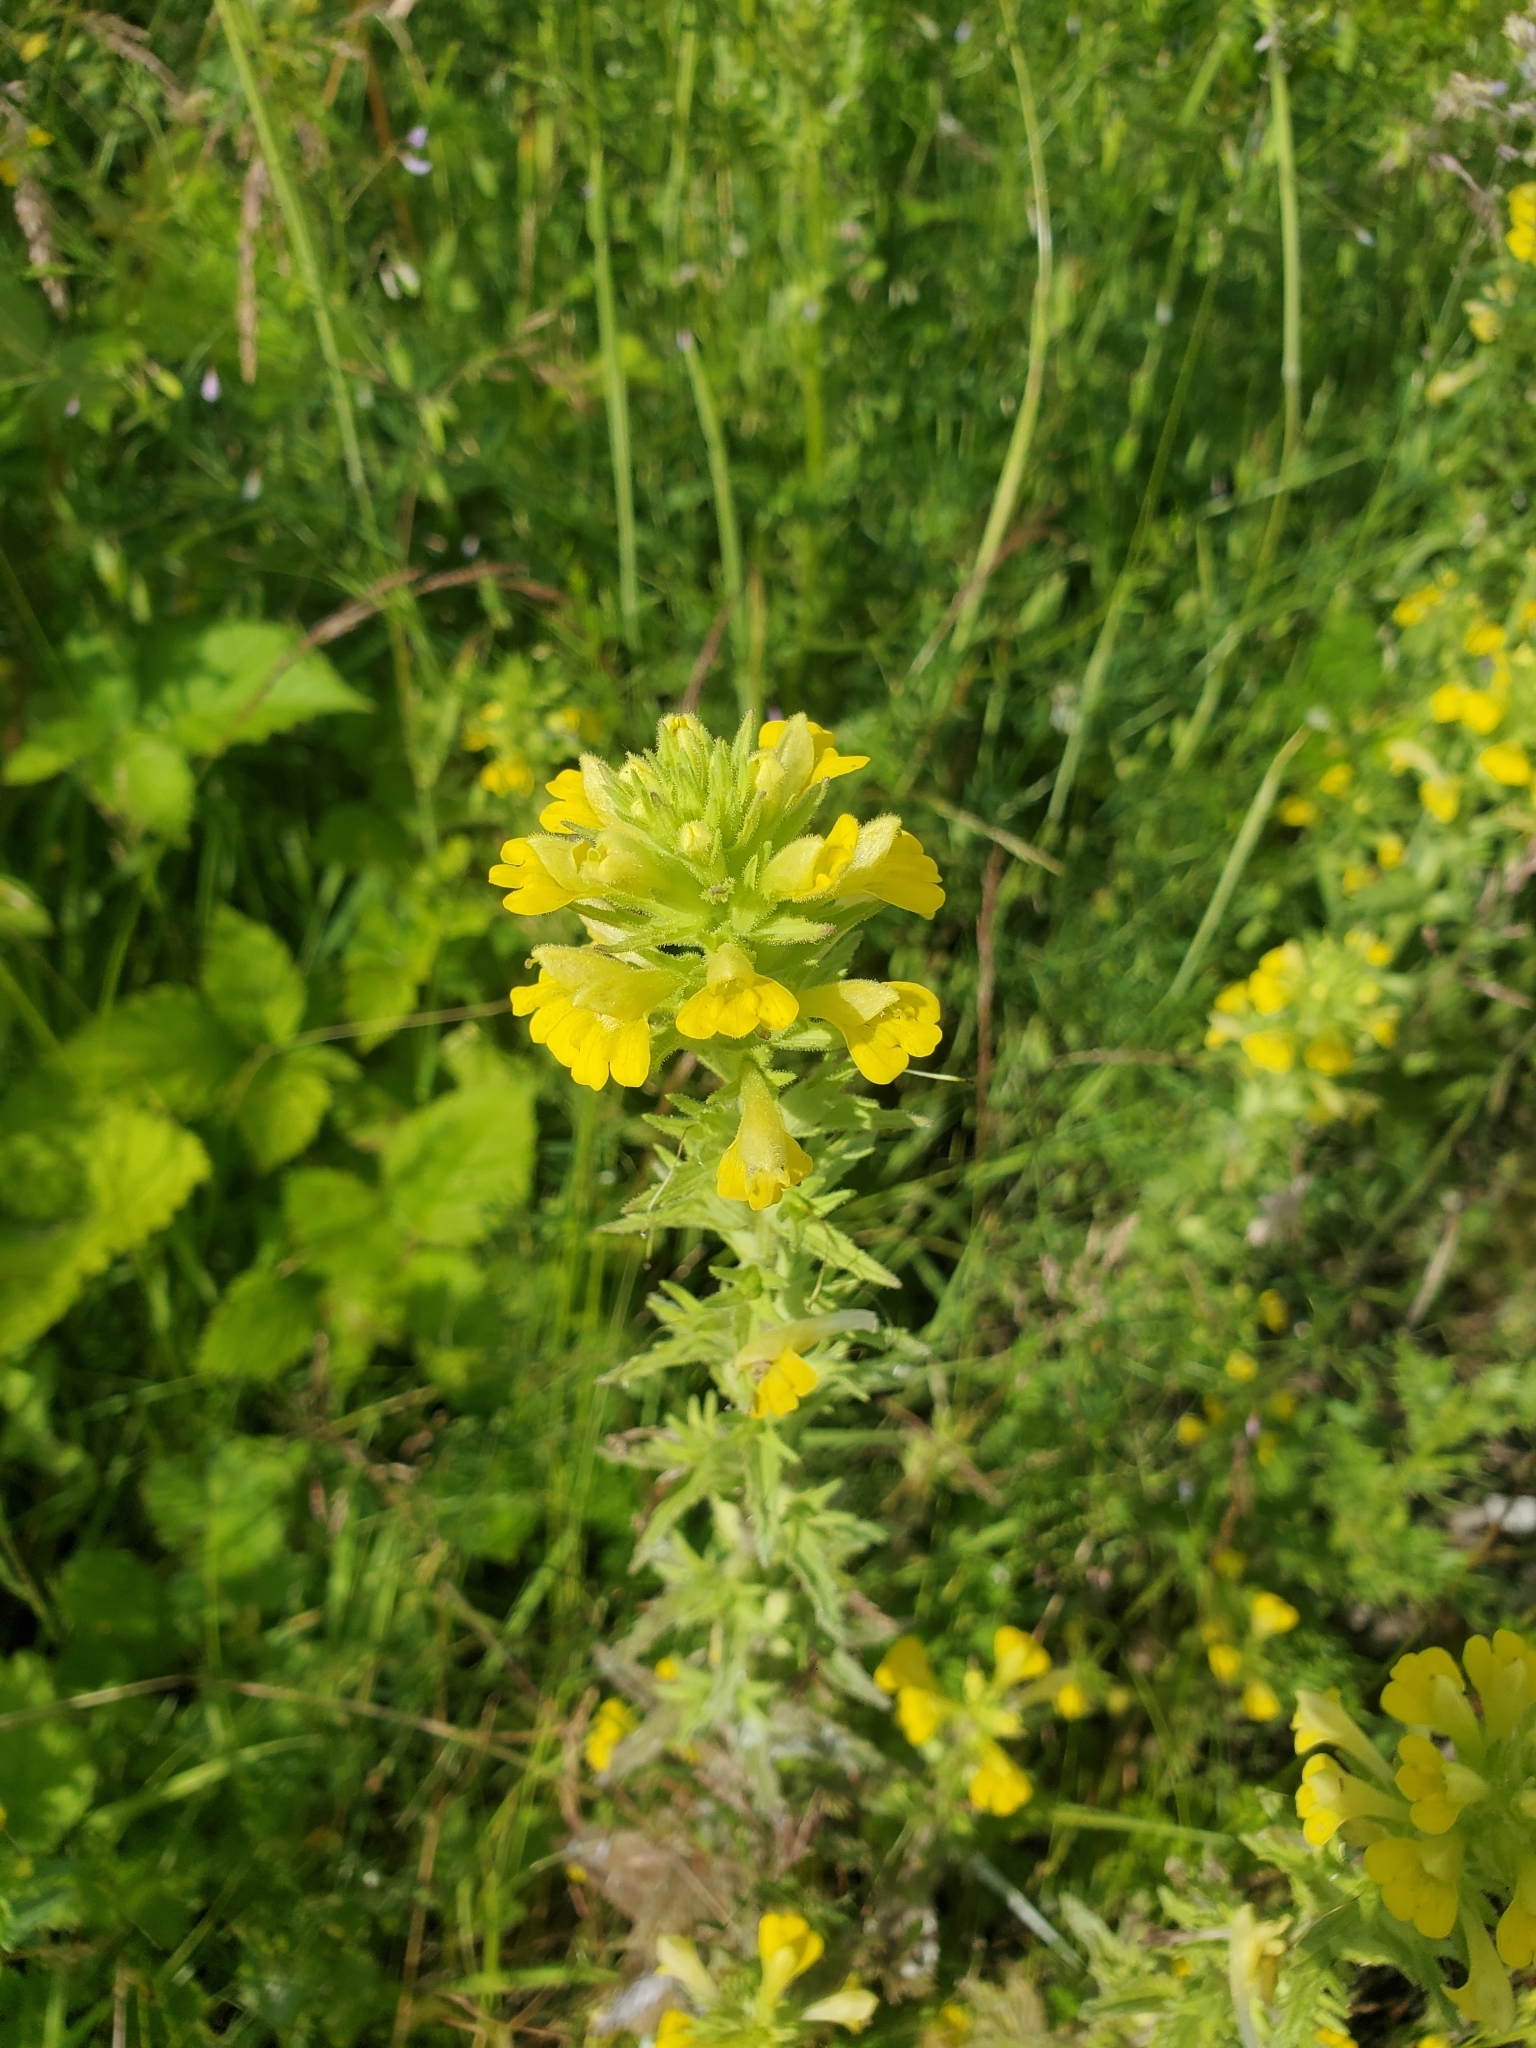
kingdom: Plantae
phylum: Tracheophyta
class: Magnoliopsida
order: Lamiales
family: Orobanchaceae
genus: Bellardia
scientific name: Bellardia viscosa
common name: Sticky parentucellia
